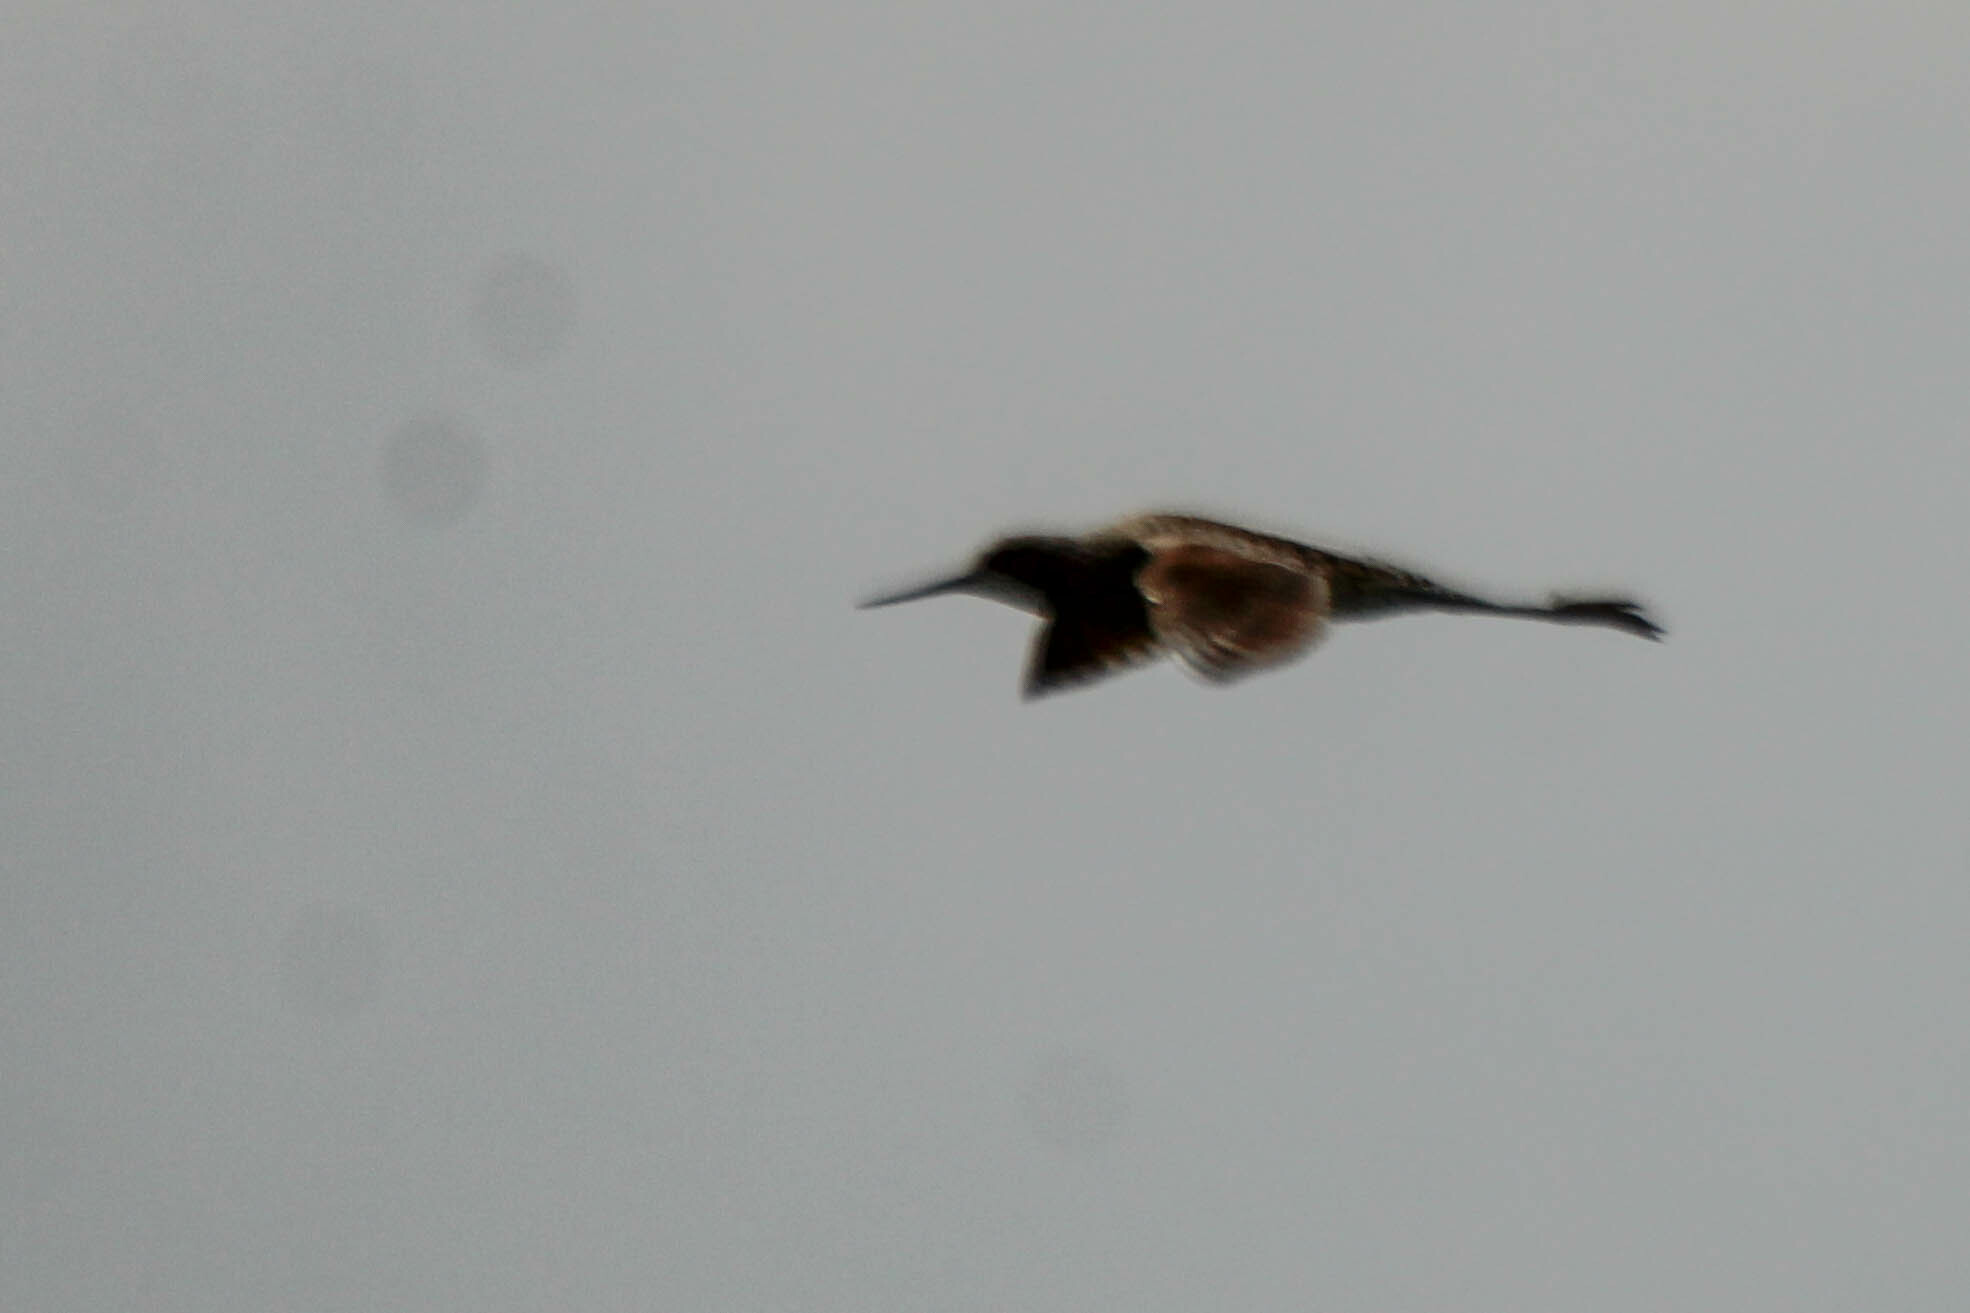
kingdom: Animalia
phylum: Chordata
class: Aves
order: Charadriiformes
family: Scolopacidae
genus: Tringa
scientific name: Tringa stagnatilis
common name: Marsh sandpiper
